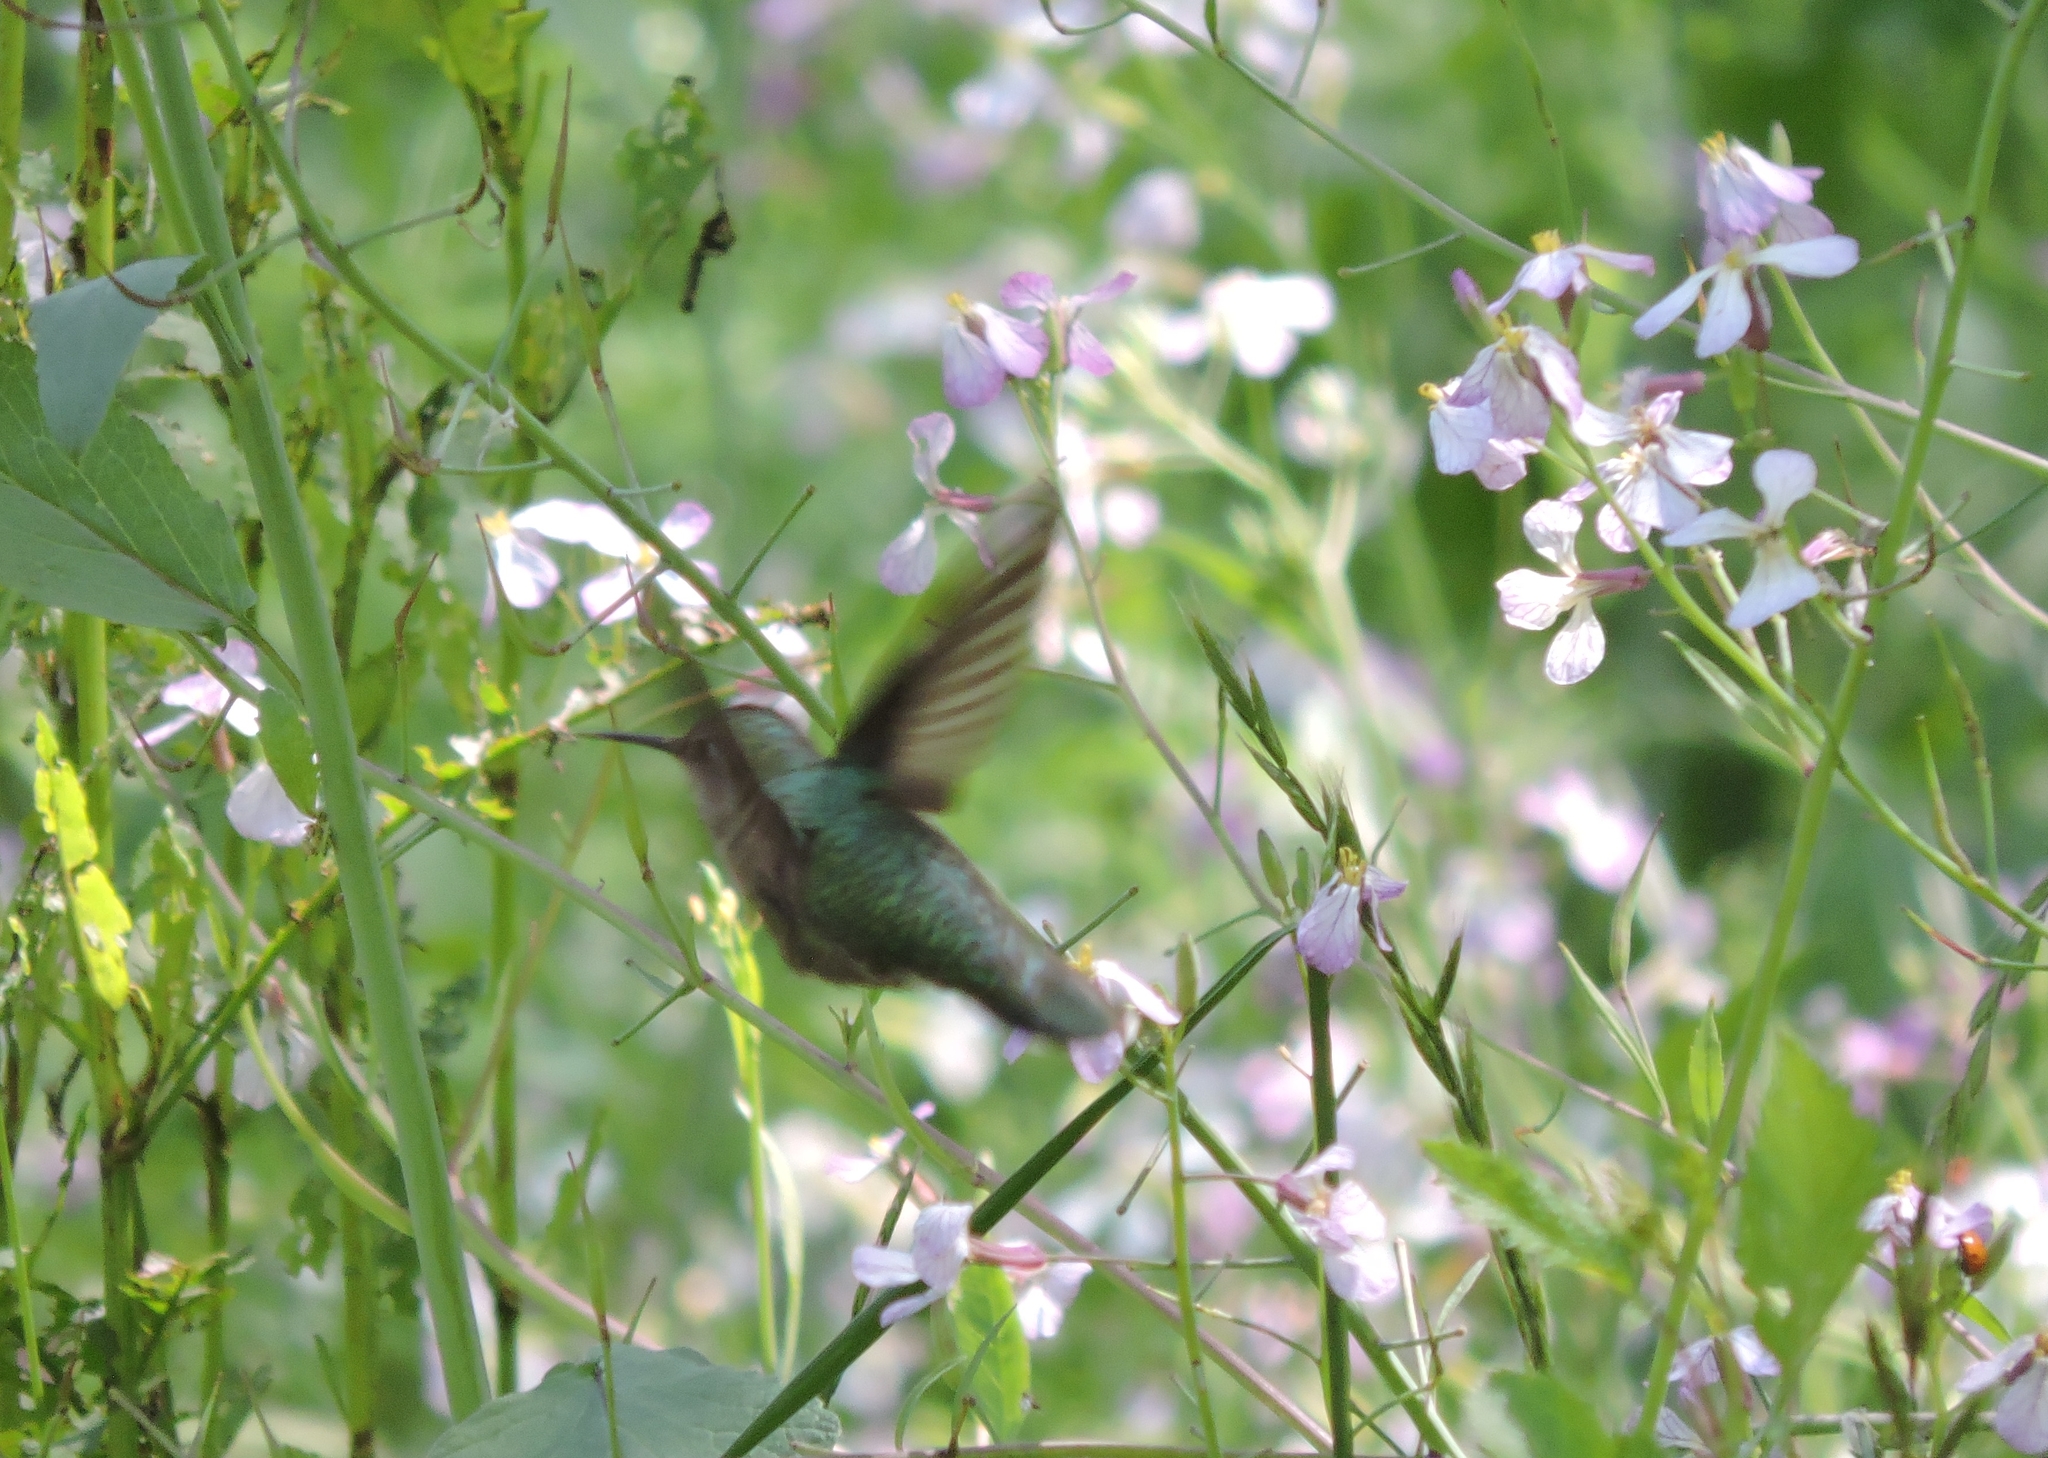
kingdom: Animalia
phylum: Chordata
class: Aves
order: Apodiformes
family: Trochilidae
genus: Calypte
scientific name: Calypte anna
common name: Anna's hummingbird
